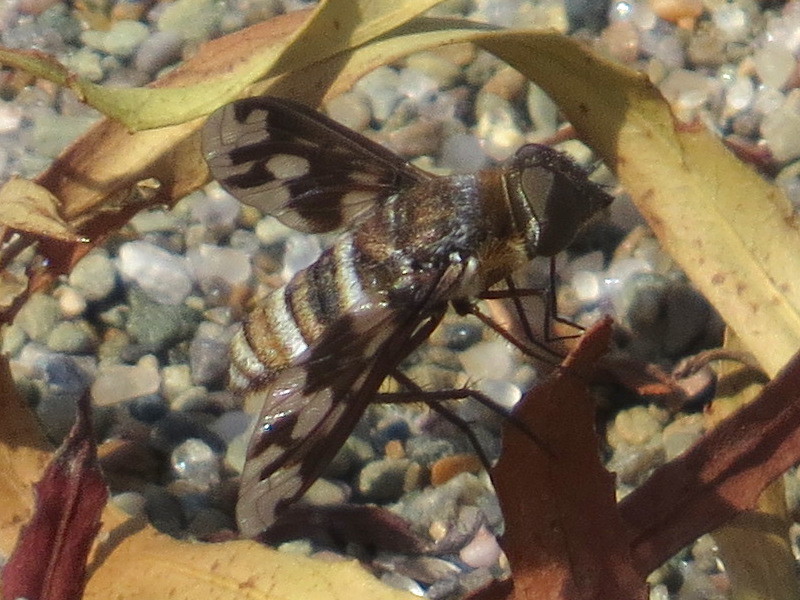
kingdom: Animalia
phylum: Arthropoda
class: Insecta
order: Diptera
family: Bombyliidae
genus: Exoprosopa
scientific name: Exoprosopa fascipennis
